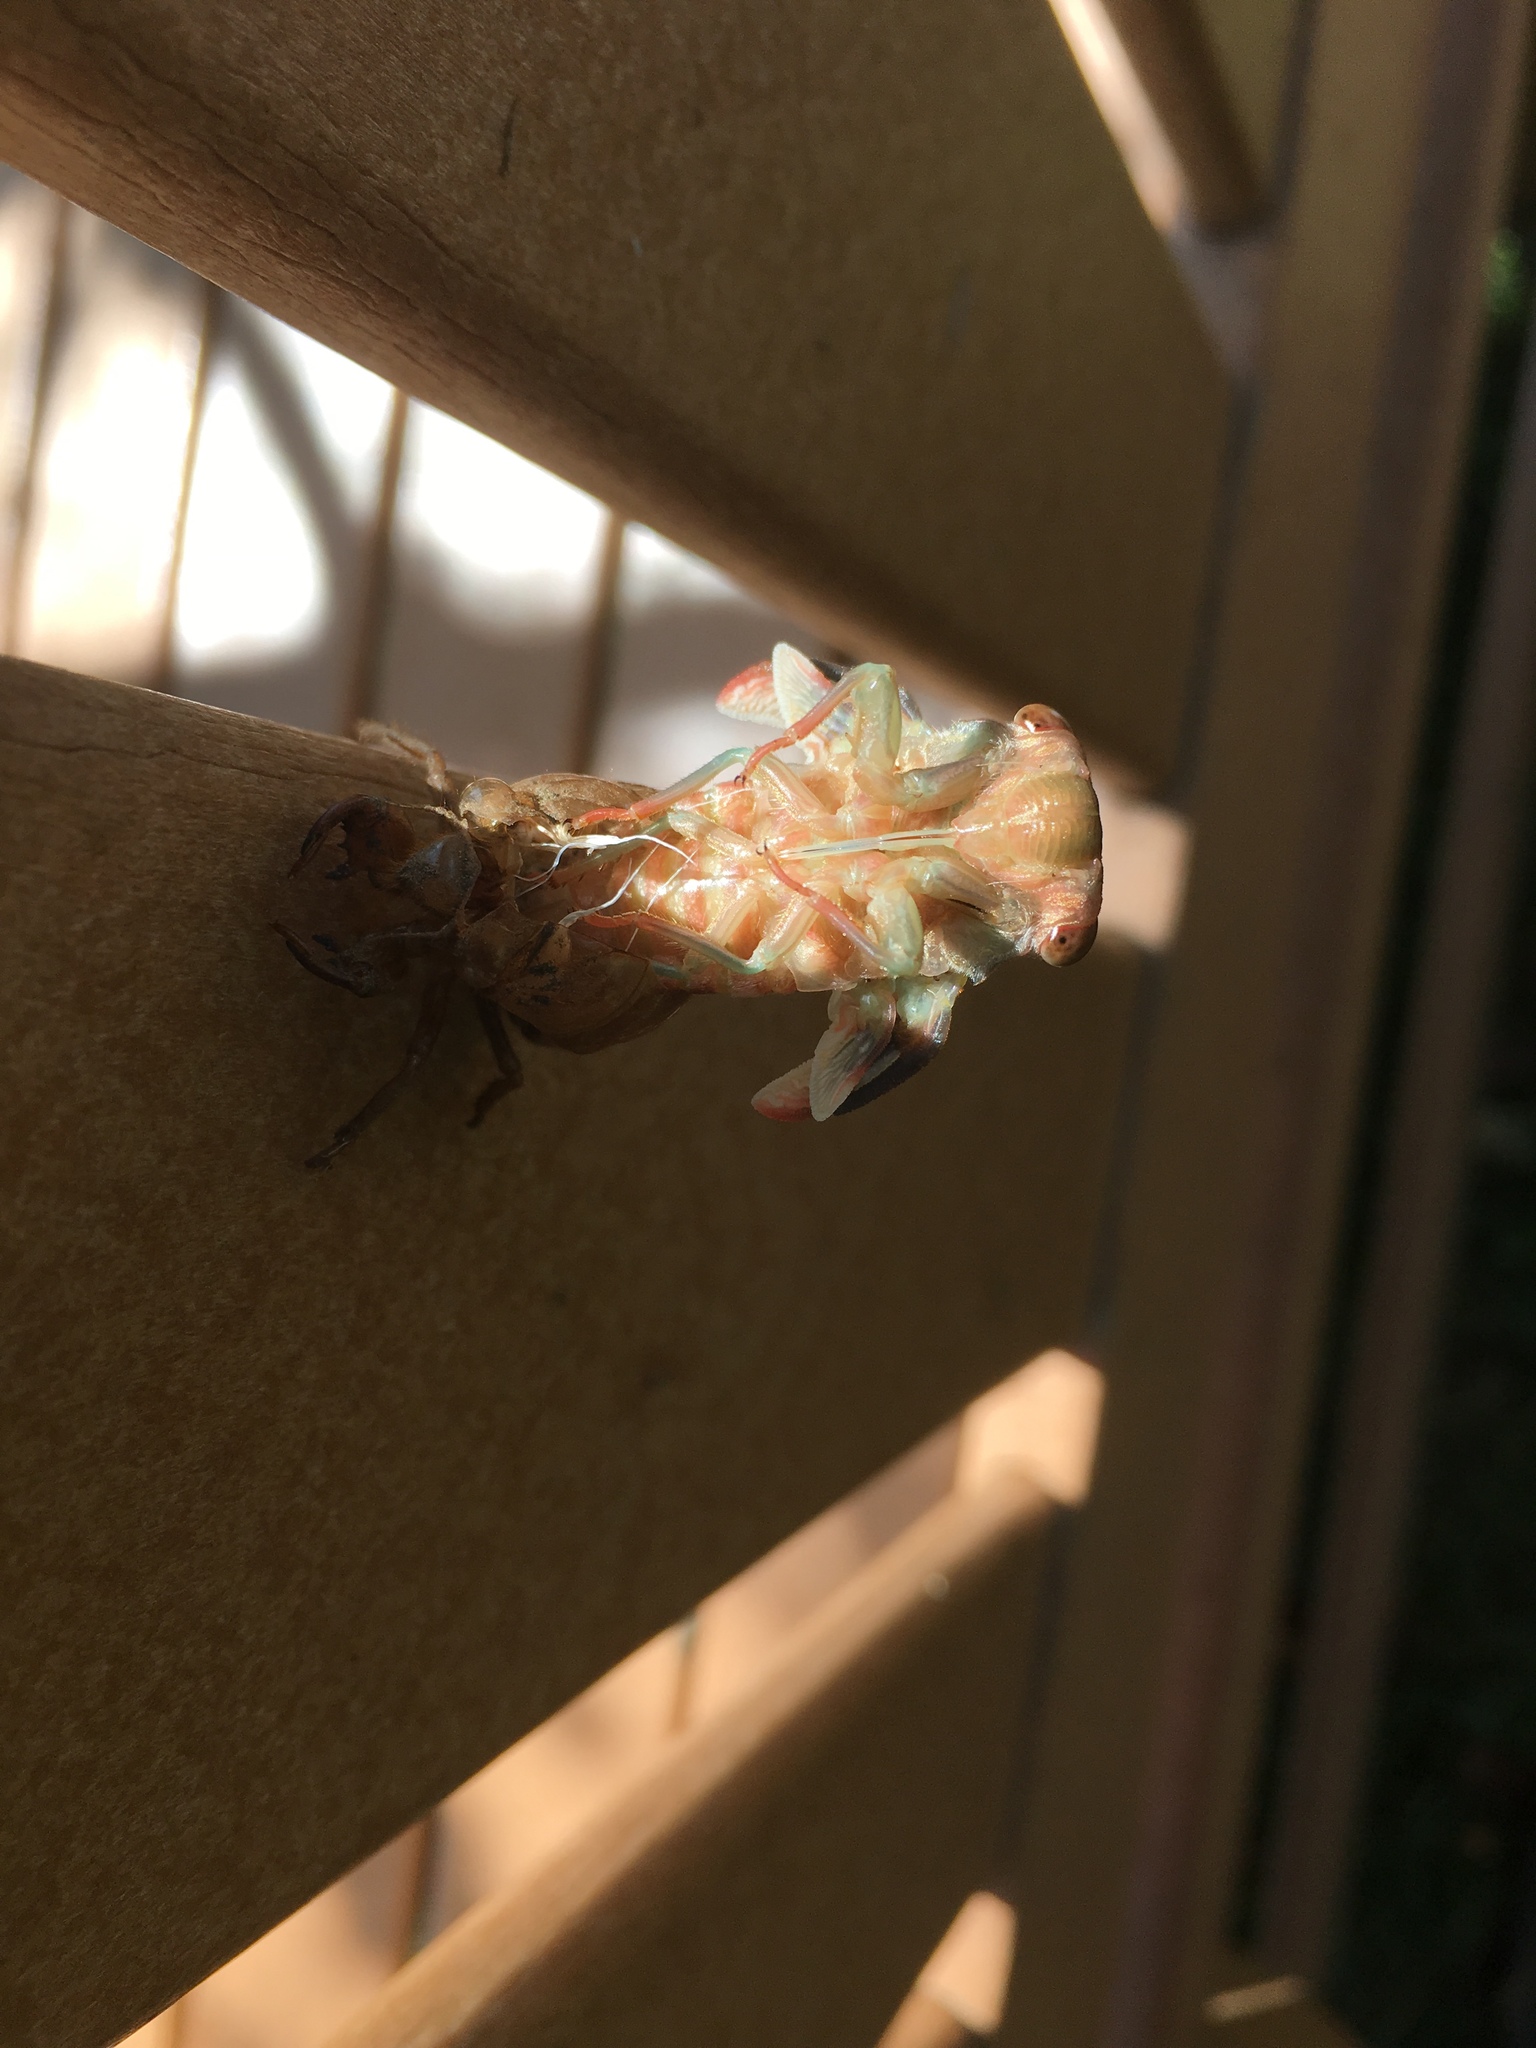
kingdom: Animalia
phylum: Arthropoda
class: Insecta
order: Hemiptera
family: Cicadidae
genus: Neotibicen
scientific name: Neotibicen canicularis
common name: God-day cicada
